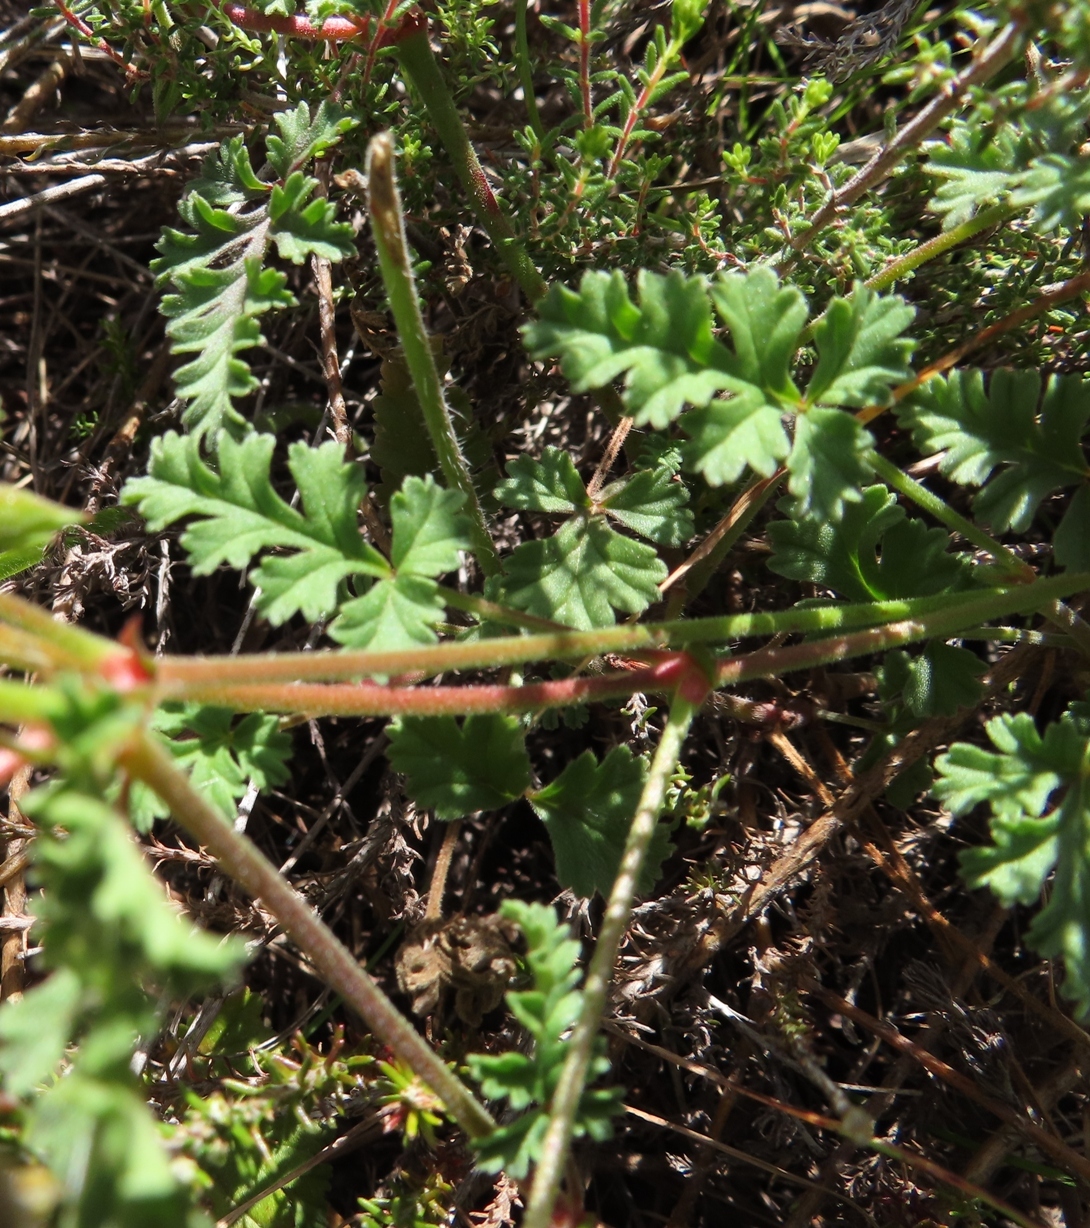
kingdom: Plantae
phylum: Tracheophyta
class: Magnoliopsida
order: Geraniales
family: Geraniaceae
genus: Pelargonium
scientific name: Pelargonium myrrhifolium
